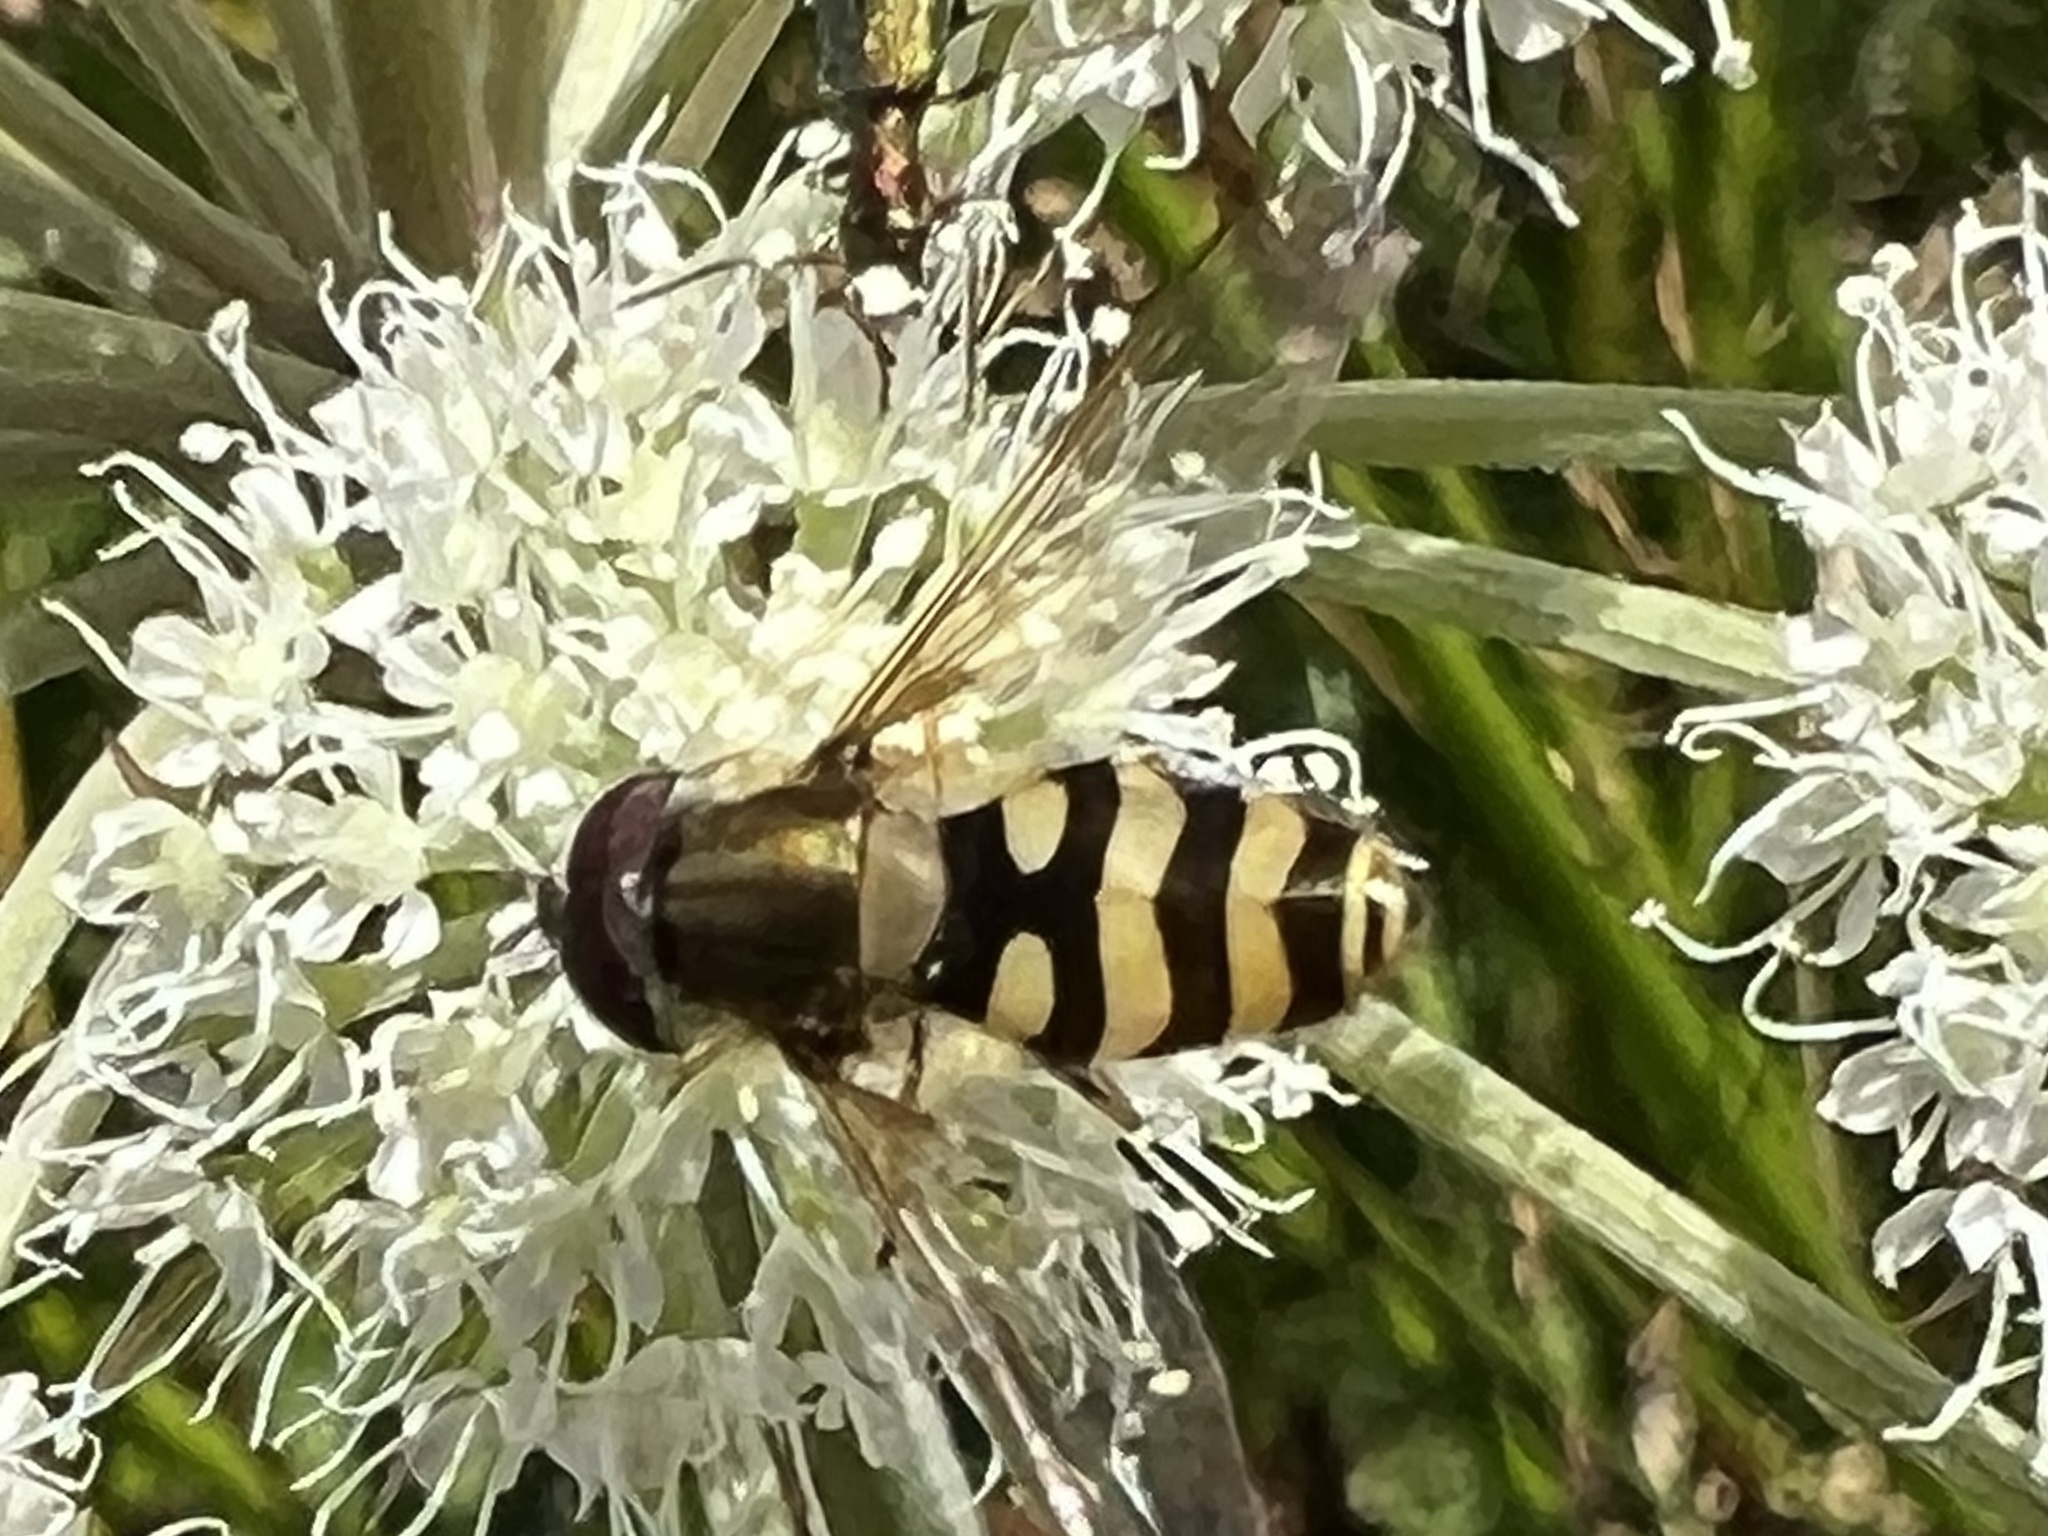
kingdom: Animalia
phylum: Arthropoda
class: Insecta
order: Diptera
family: Syrphidae
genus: Syrphus
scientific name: Syrphus
